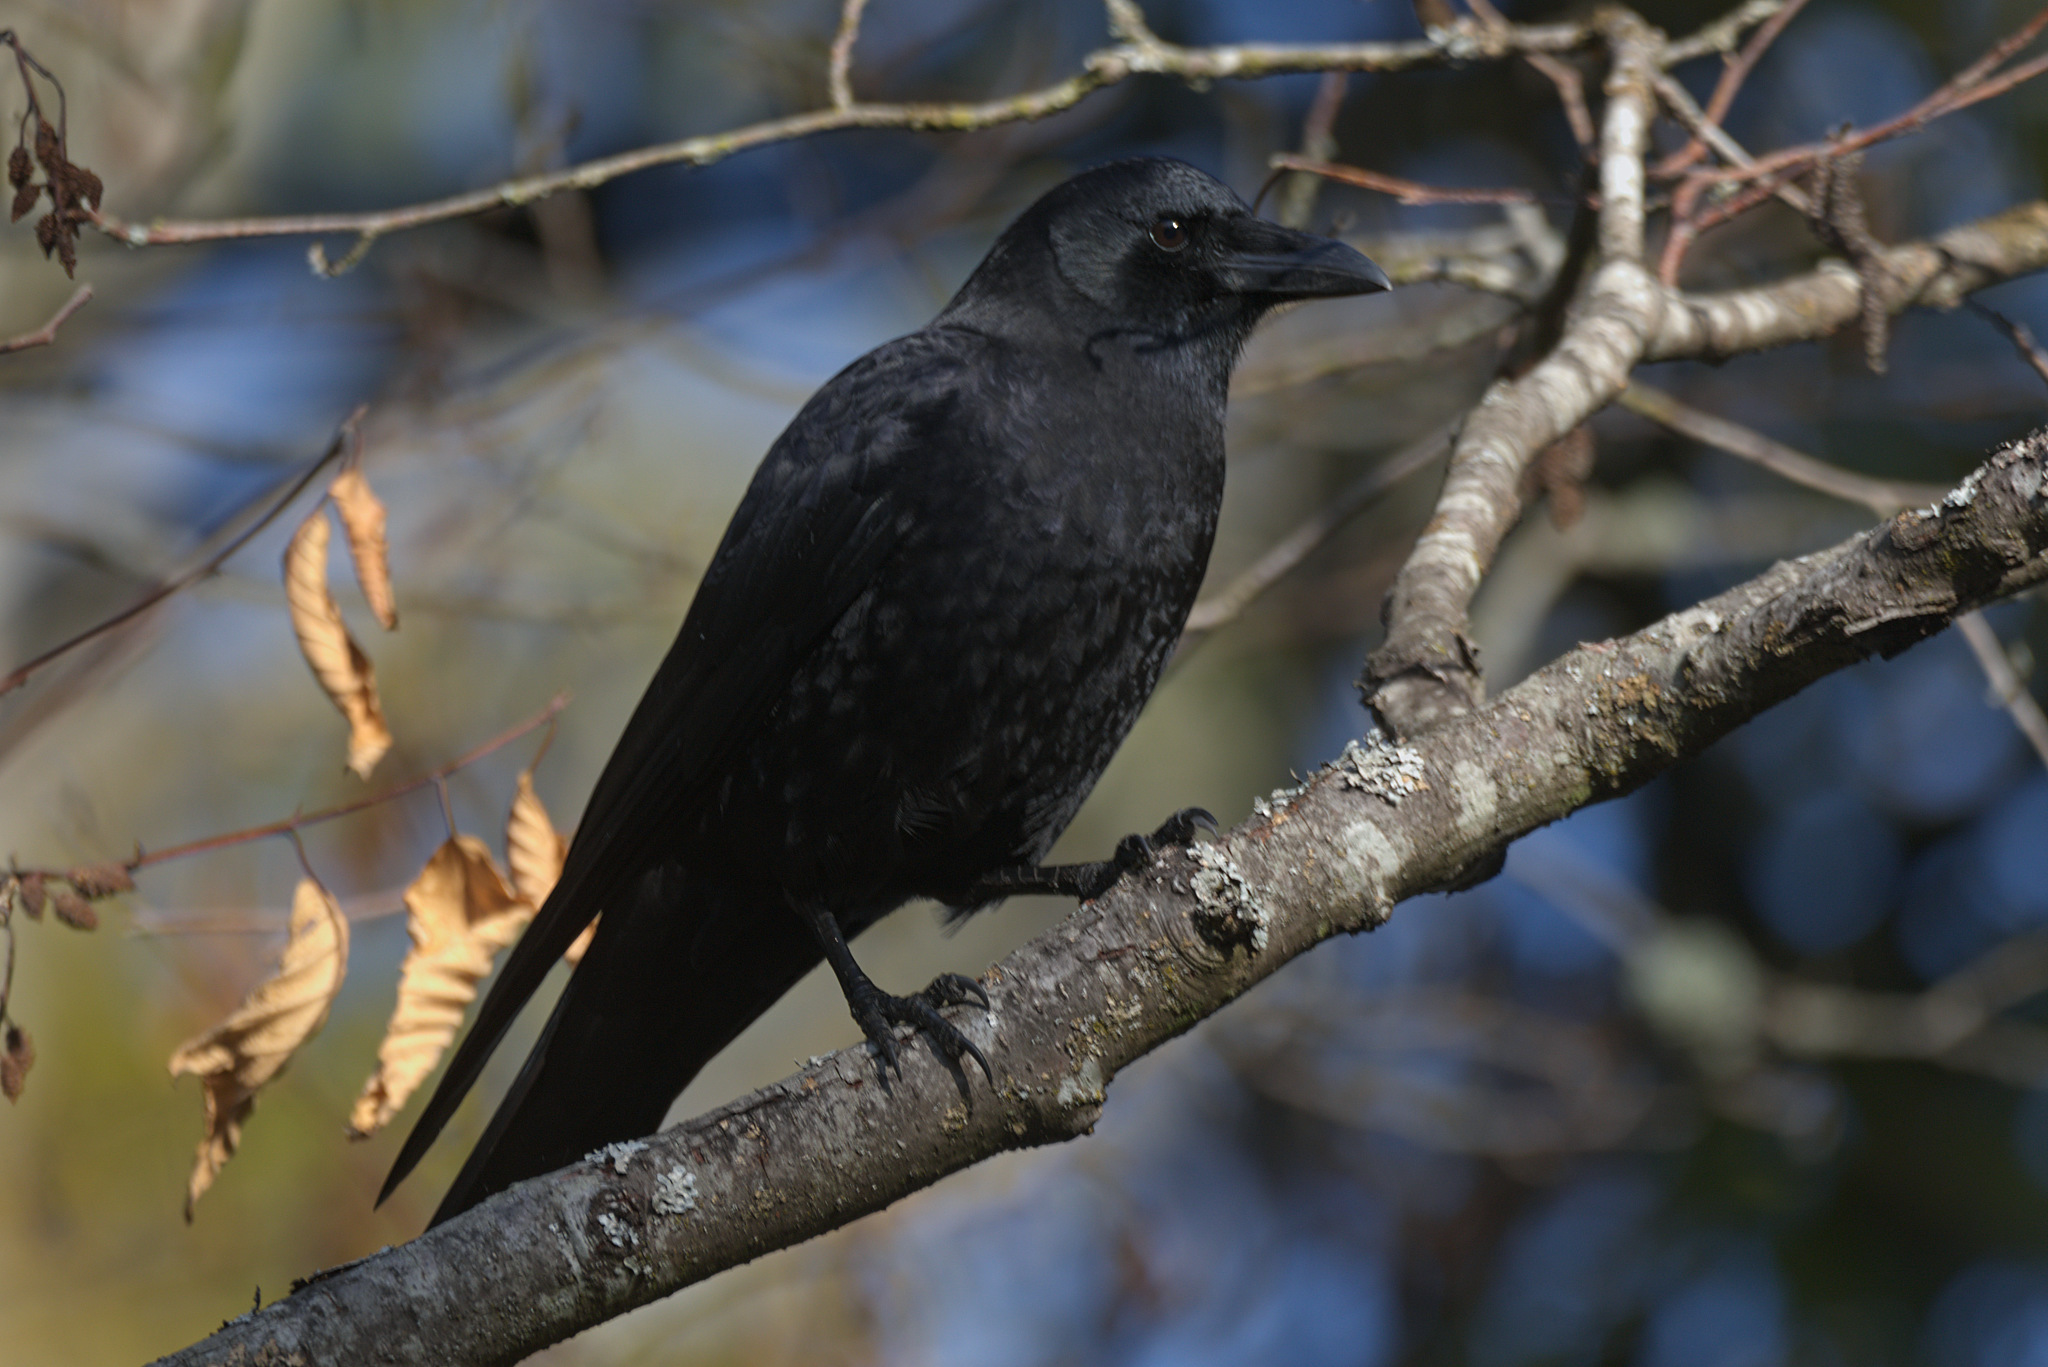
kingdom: Animalia
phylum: Chordata
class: Aves
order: Passeriformes
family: Corvidae
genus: Corvus
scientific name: Corvus brachyrhynchos
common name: American crow
